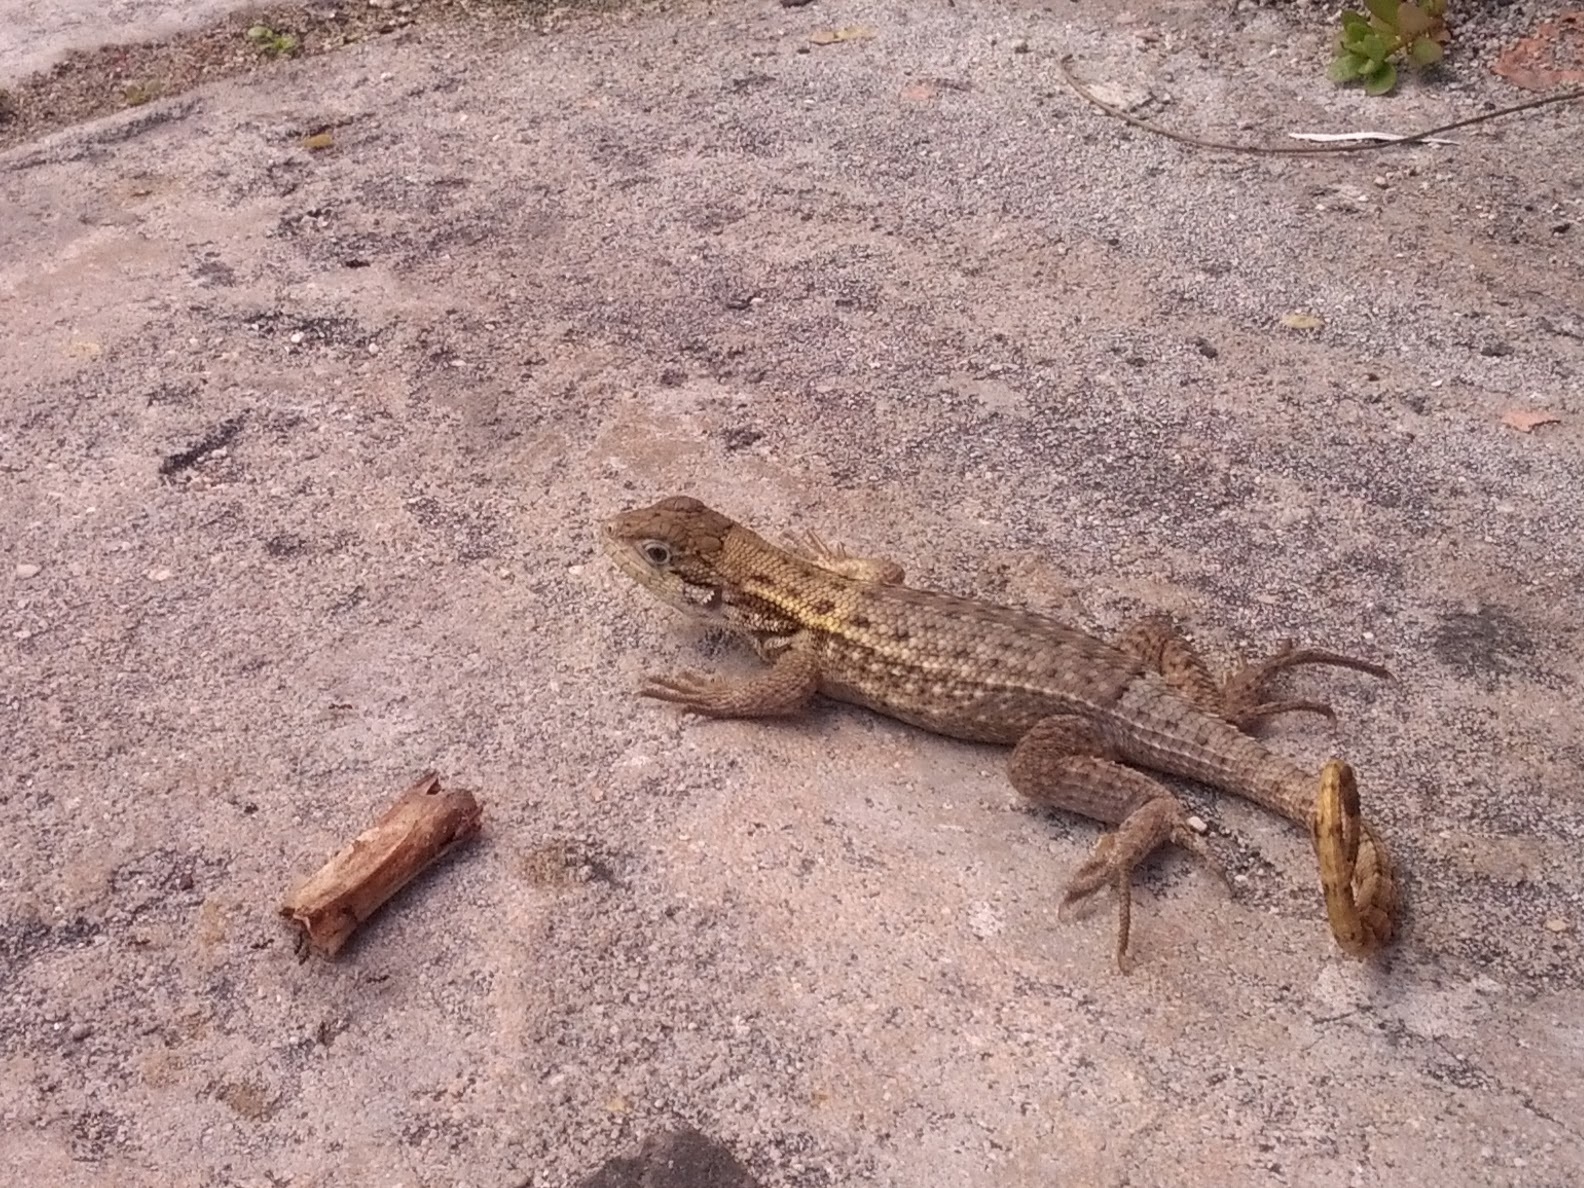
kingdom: Animalia
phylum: Chordata
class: Squamata
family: Leiocephalidae
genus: Leiocephalus
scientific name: Leiocephalus carinatus
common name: Northern curly-tailed lizard
